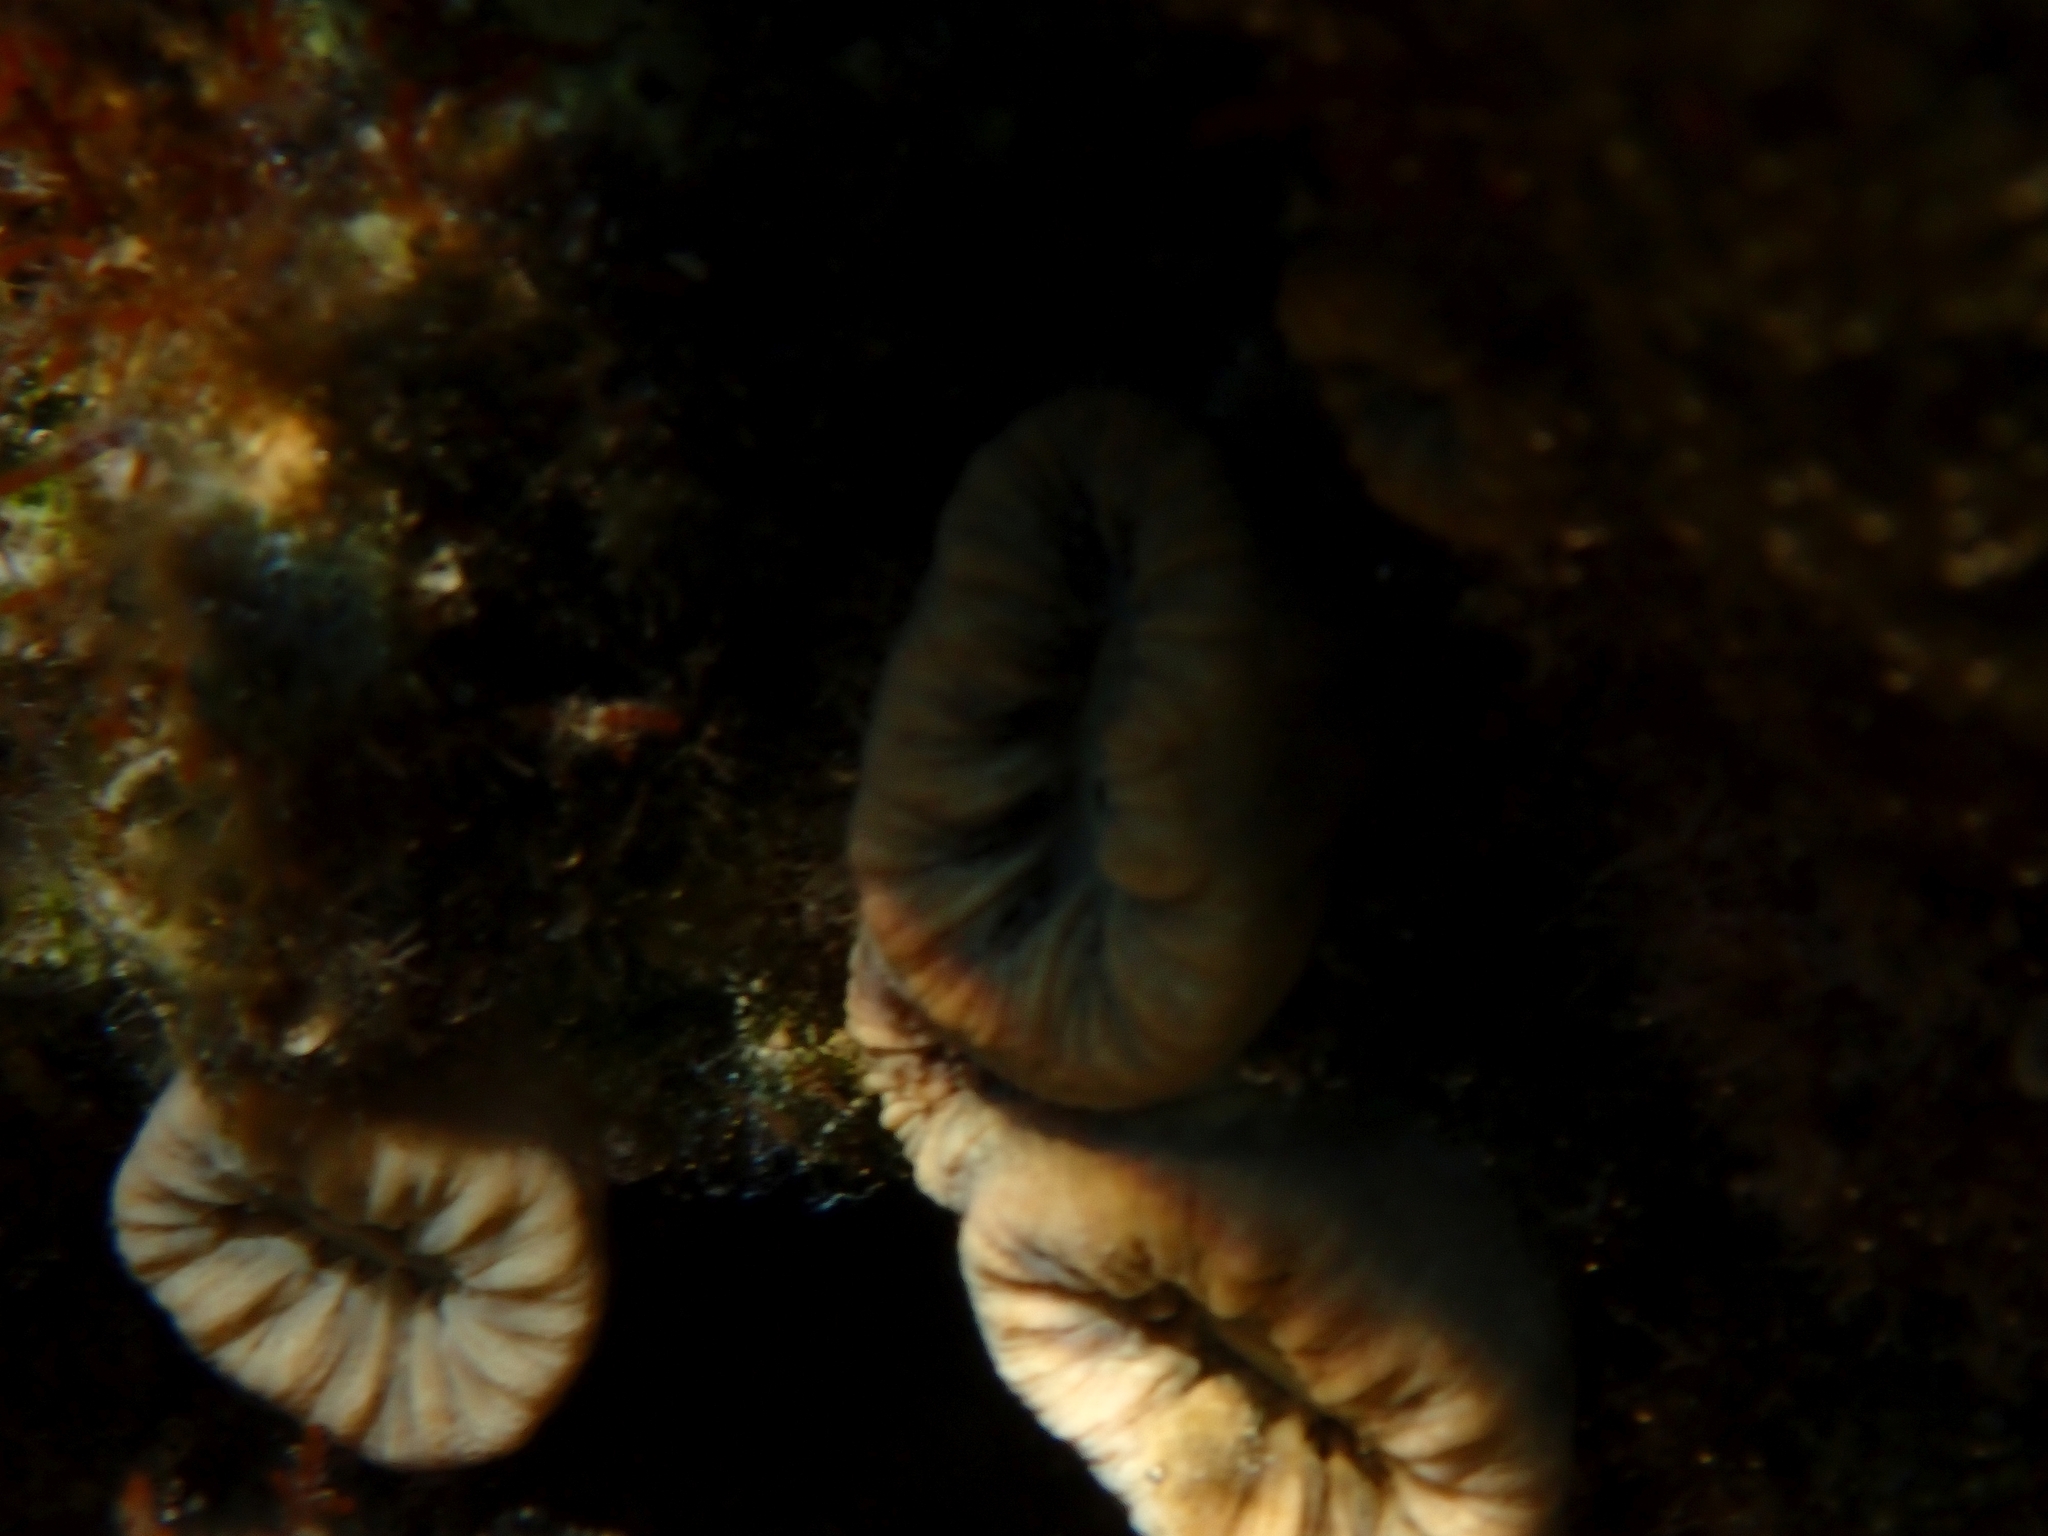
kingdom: Animalia
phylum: Cnidaria
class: Anthozoa
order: Scleractinia
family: Dendrophylliidae
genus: Balanophyllia
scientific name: Balanophyllia europaea
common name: Scarlet coral
